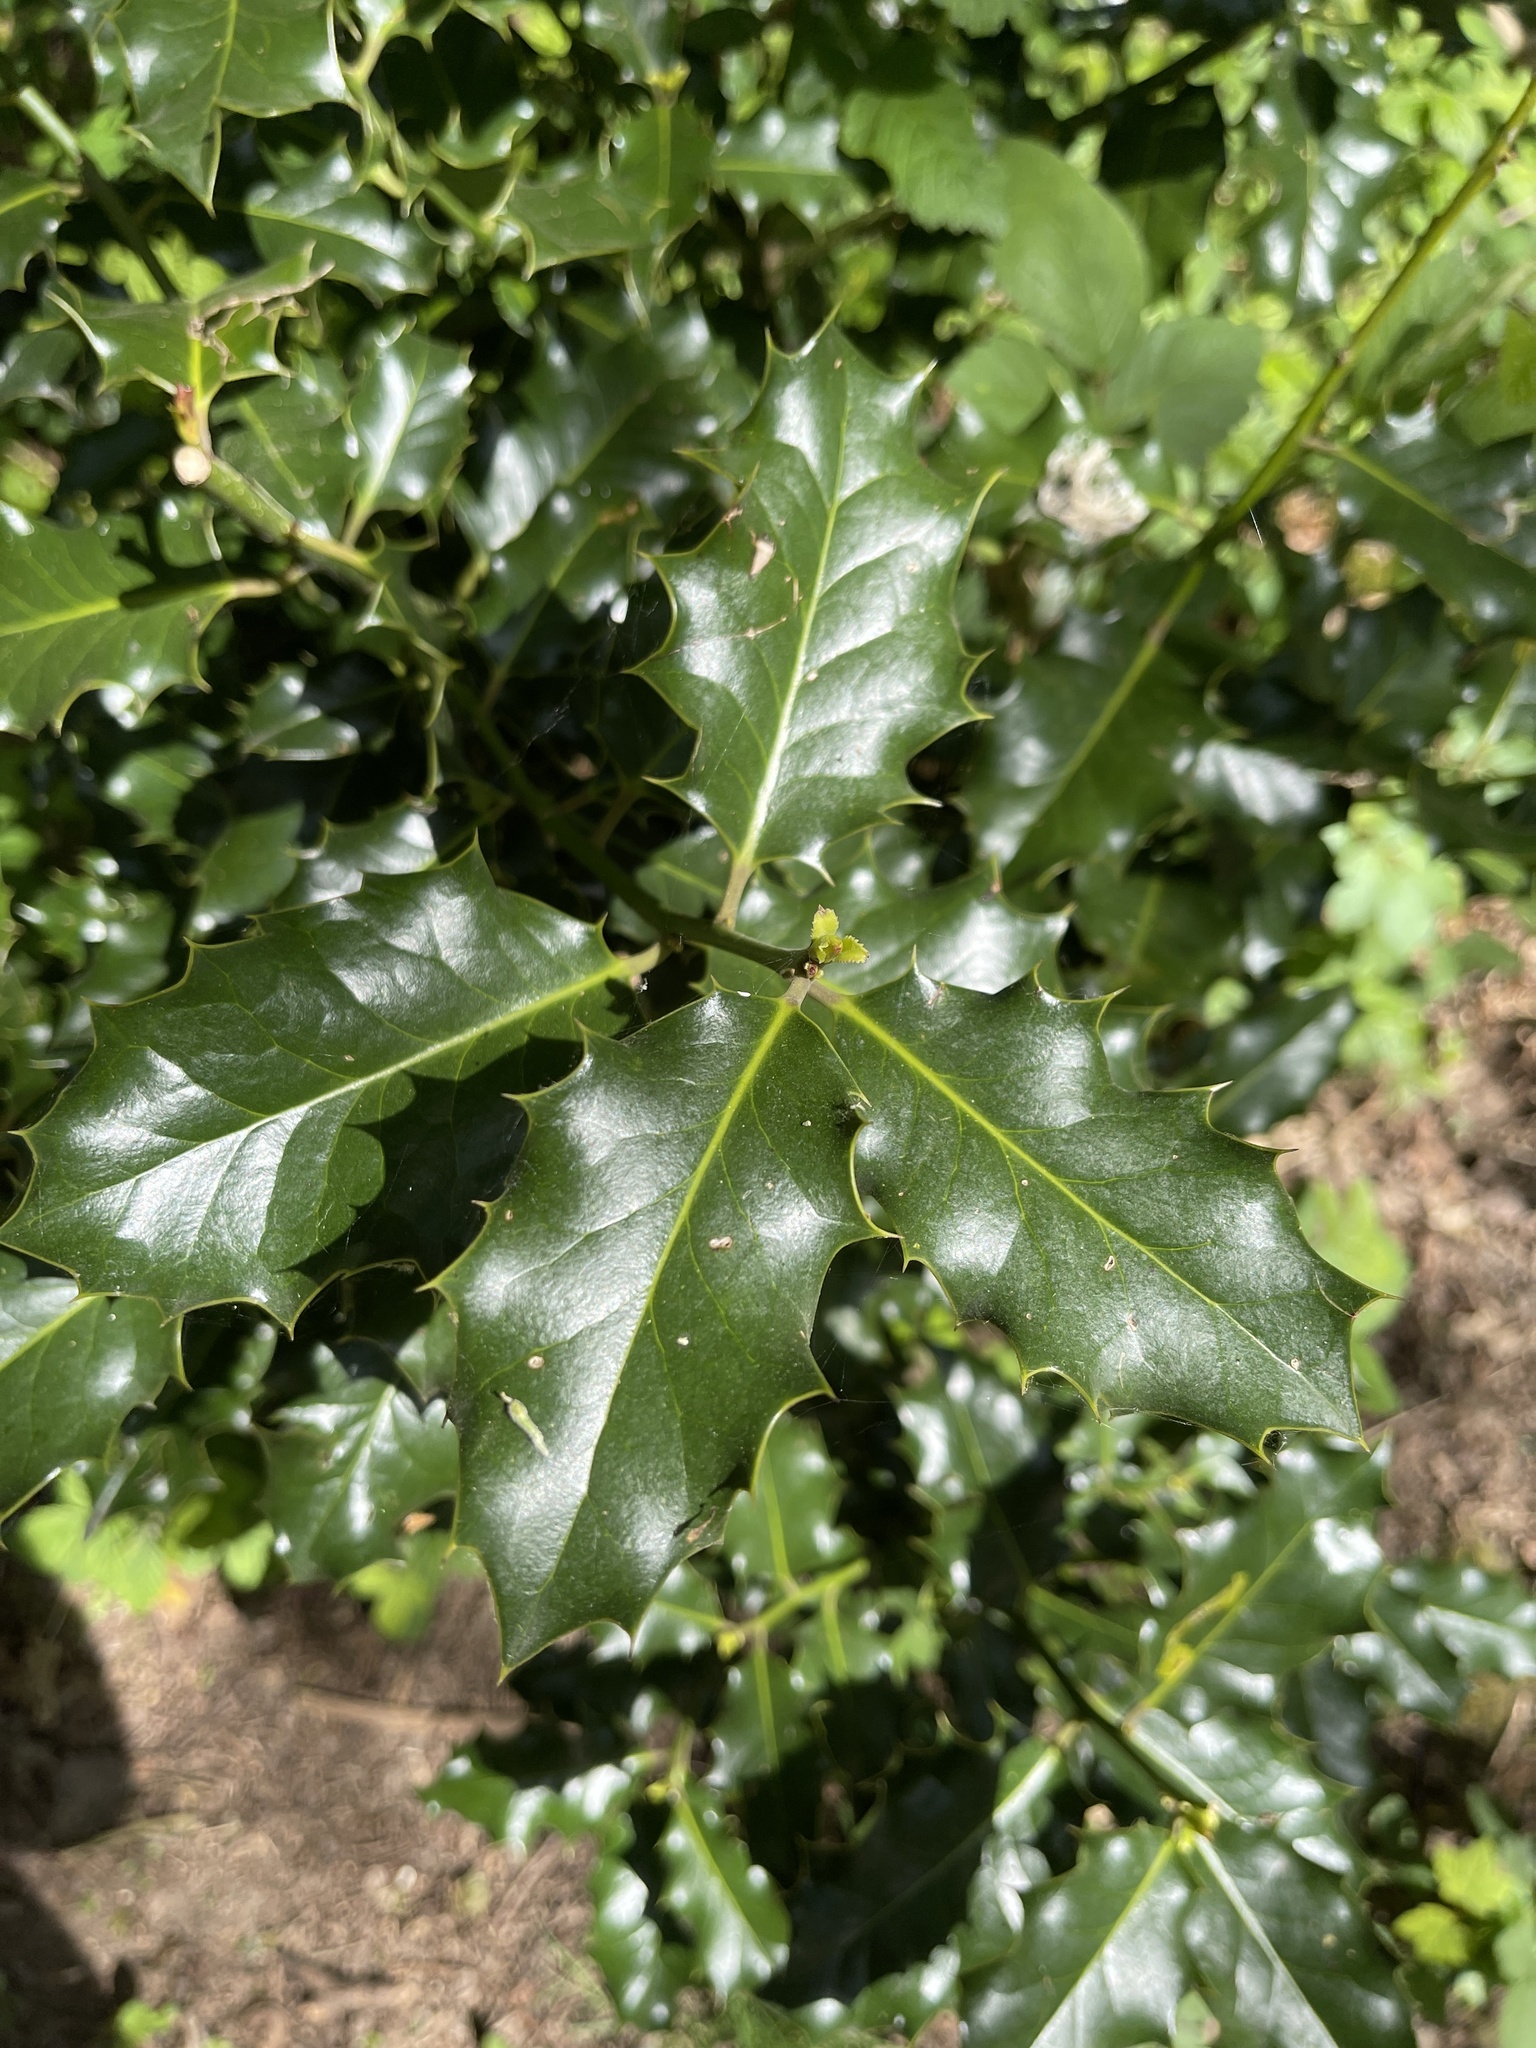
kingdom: Plantae
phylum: Tracheophyta
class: Magnoliopsida
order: Aquifoliales
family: Aquifoliaceae
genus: Ilex
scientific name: Ilex aquifolium
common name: English holly
